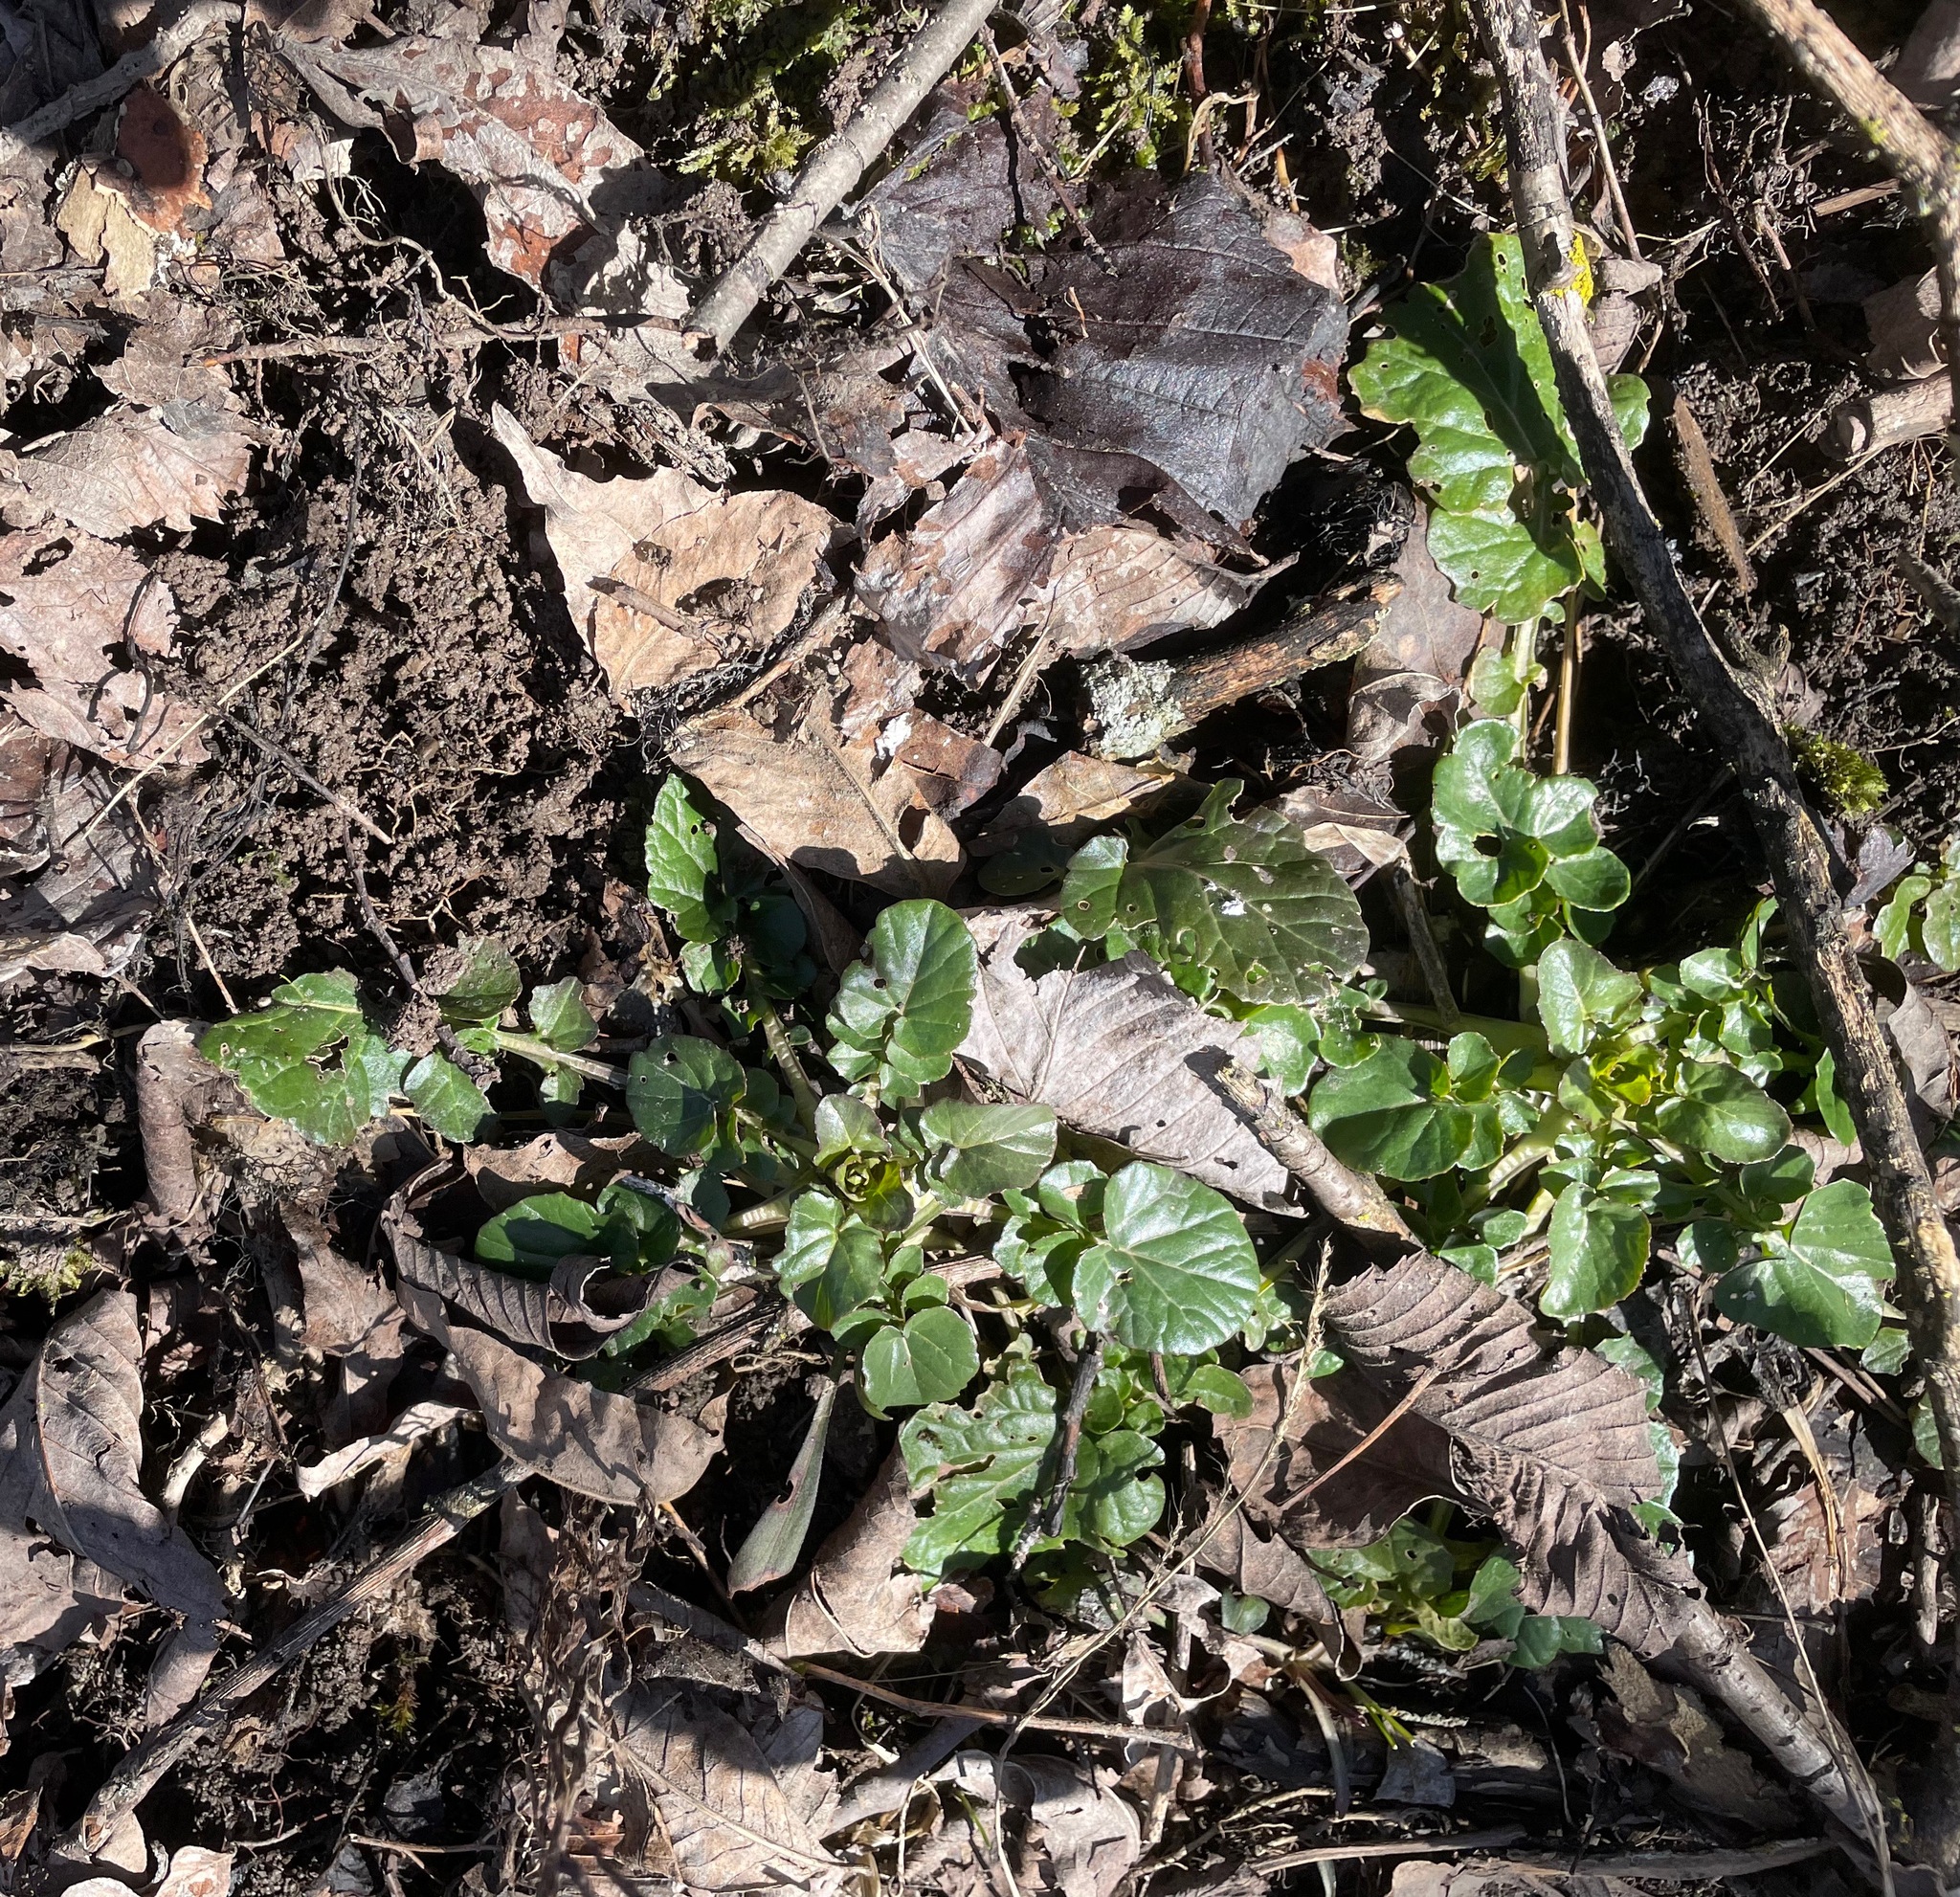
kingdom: Plantae
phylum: Tracheophyta
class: Magnoliopsida
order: Brassicales
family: Brassicaceae
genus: Barbarea
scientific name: Barbarea vulgaris
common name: Cressy-greens
